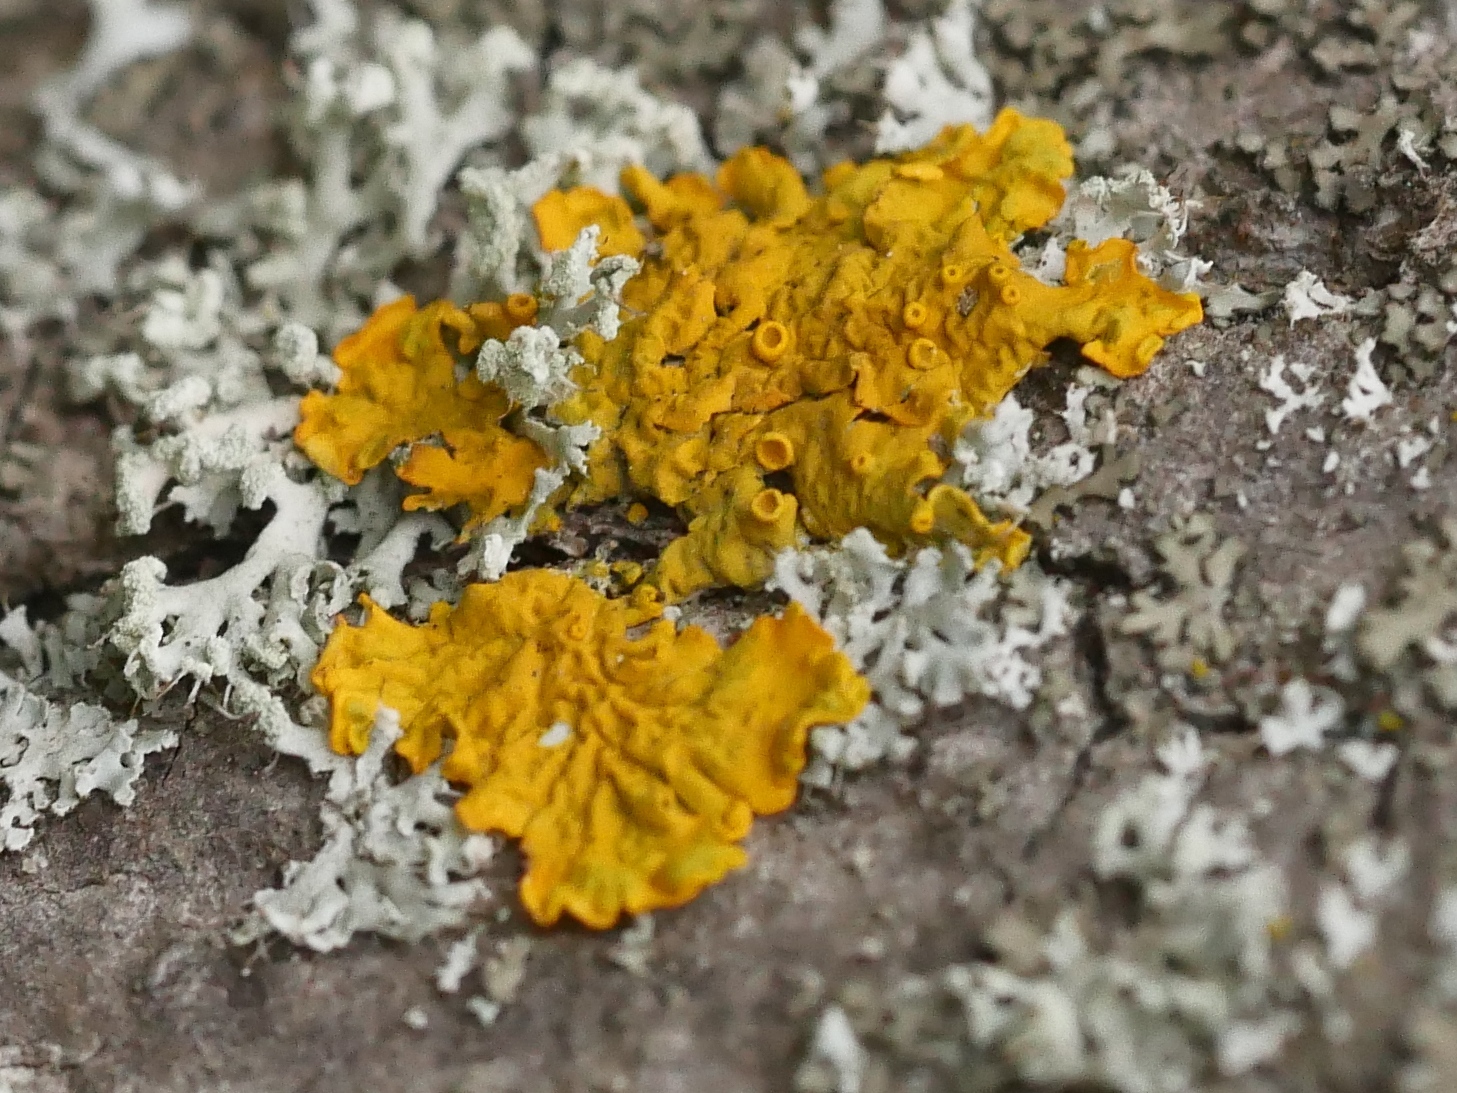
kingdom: Fungi
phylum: Ascomycota
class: Lecanoromycetes
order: Teloschistales
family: Teloschistaceae
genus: Xanthoria
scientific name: Xanthoria parietina
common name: Common orange lichen
